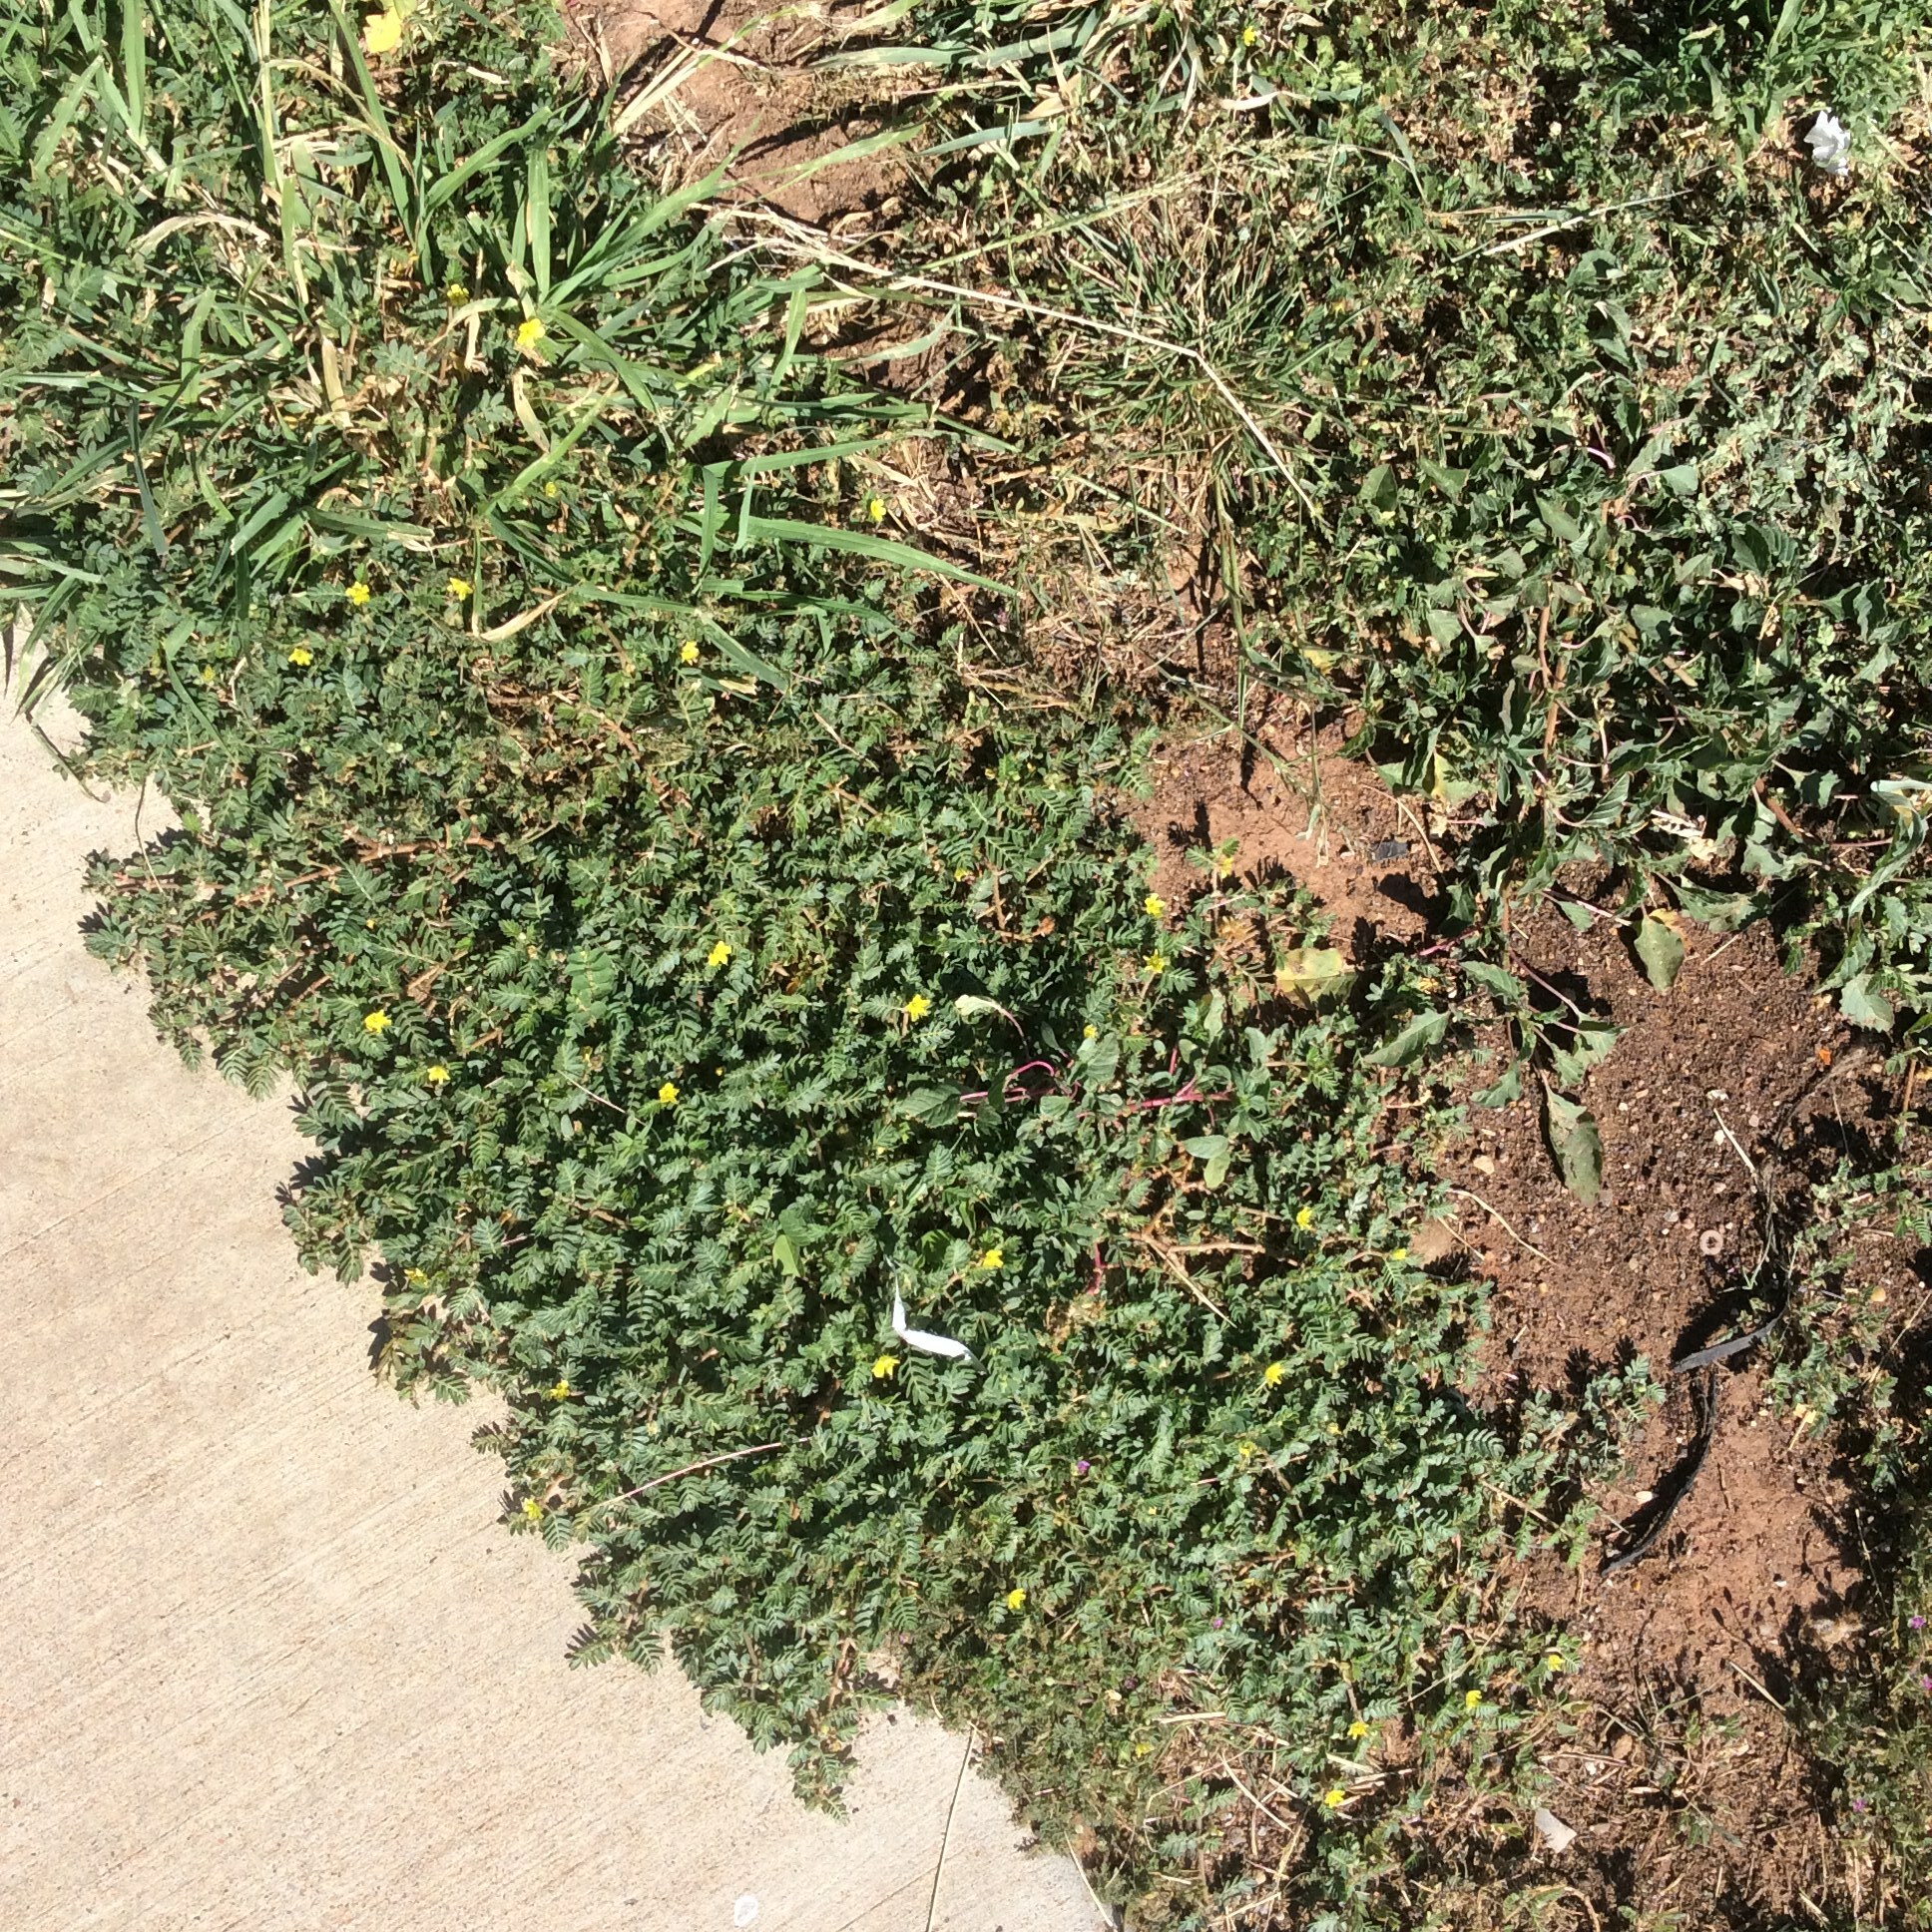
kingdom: Plantae
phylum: Tracheophyta
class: Magnoliopsida
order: Zygophyllales
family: Zygophyllaceae
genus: Tribulus
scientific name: Tribulus terrestris
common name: Puncturevine
